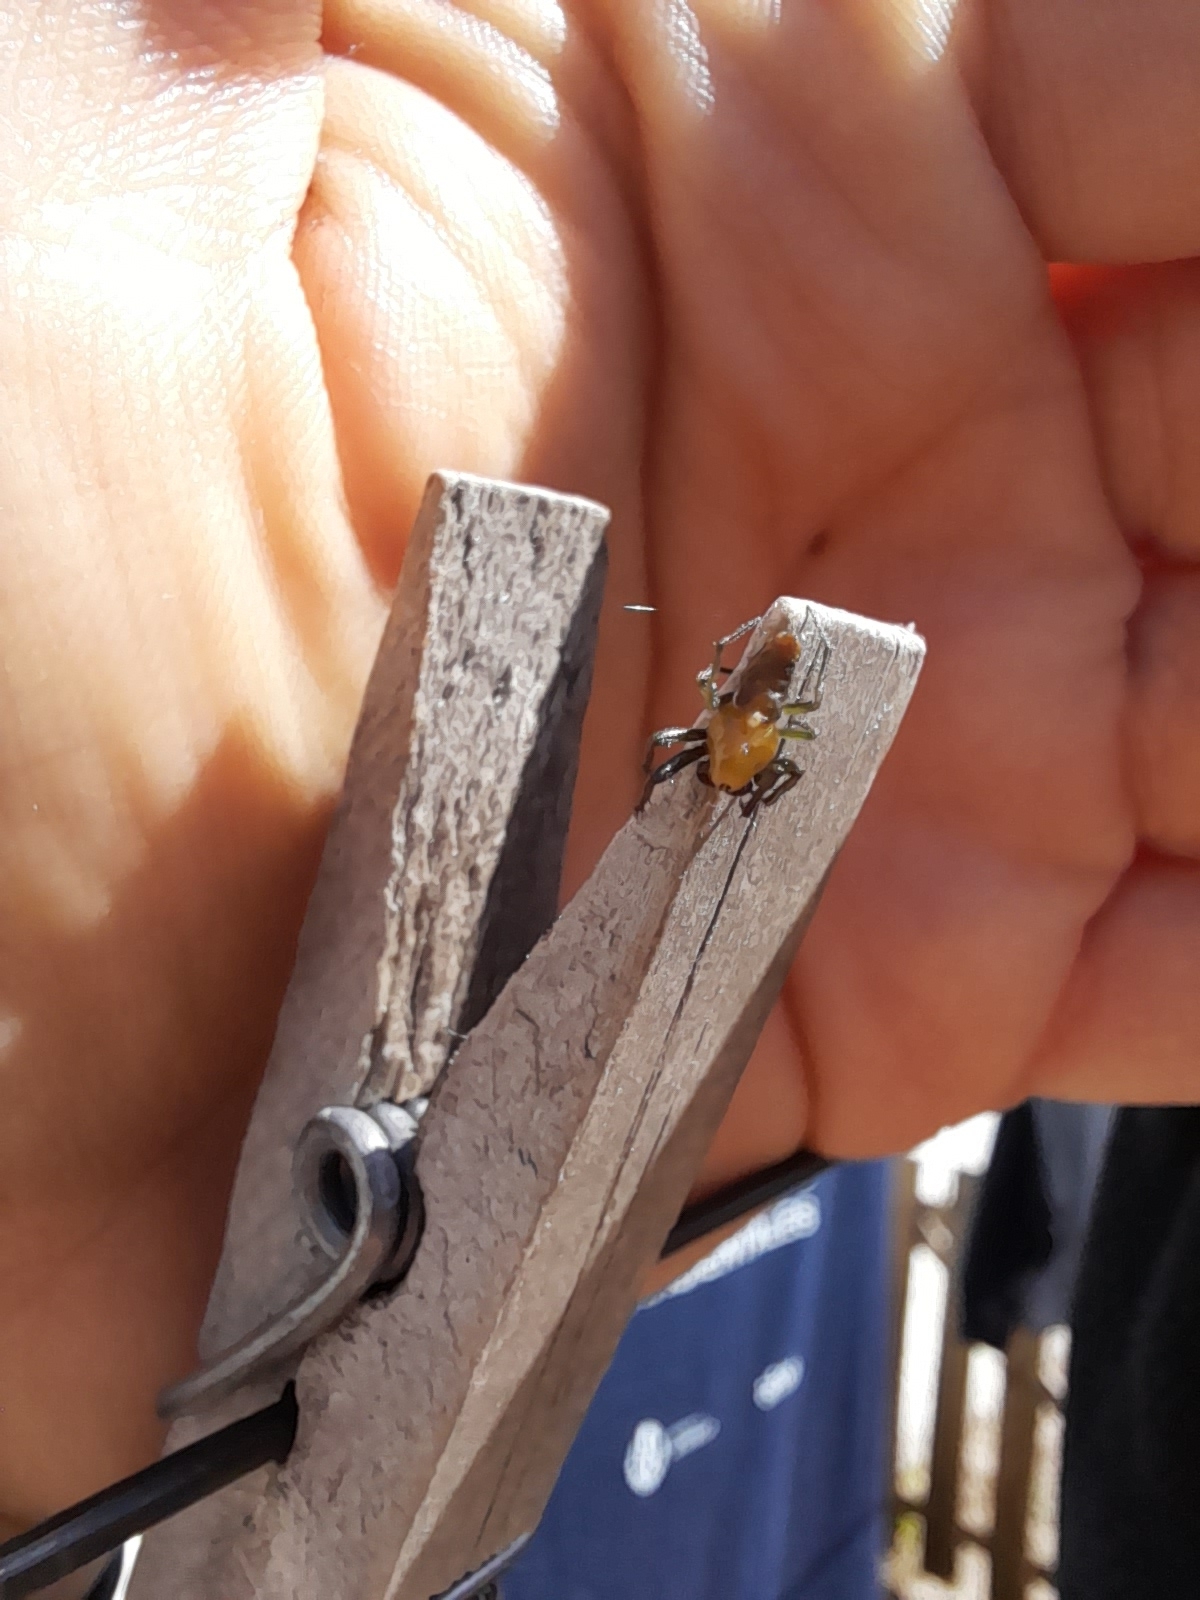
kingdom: Animalia
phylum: Arthropoda
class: Arachnida
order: Araneae
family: Araneidae
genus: Alpaida
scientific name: Alpaida costai
